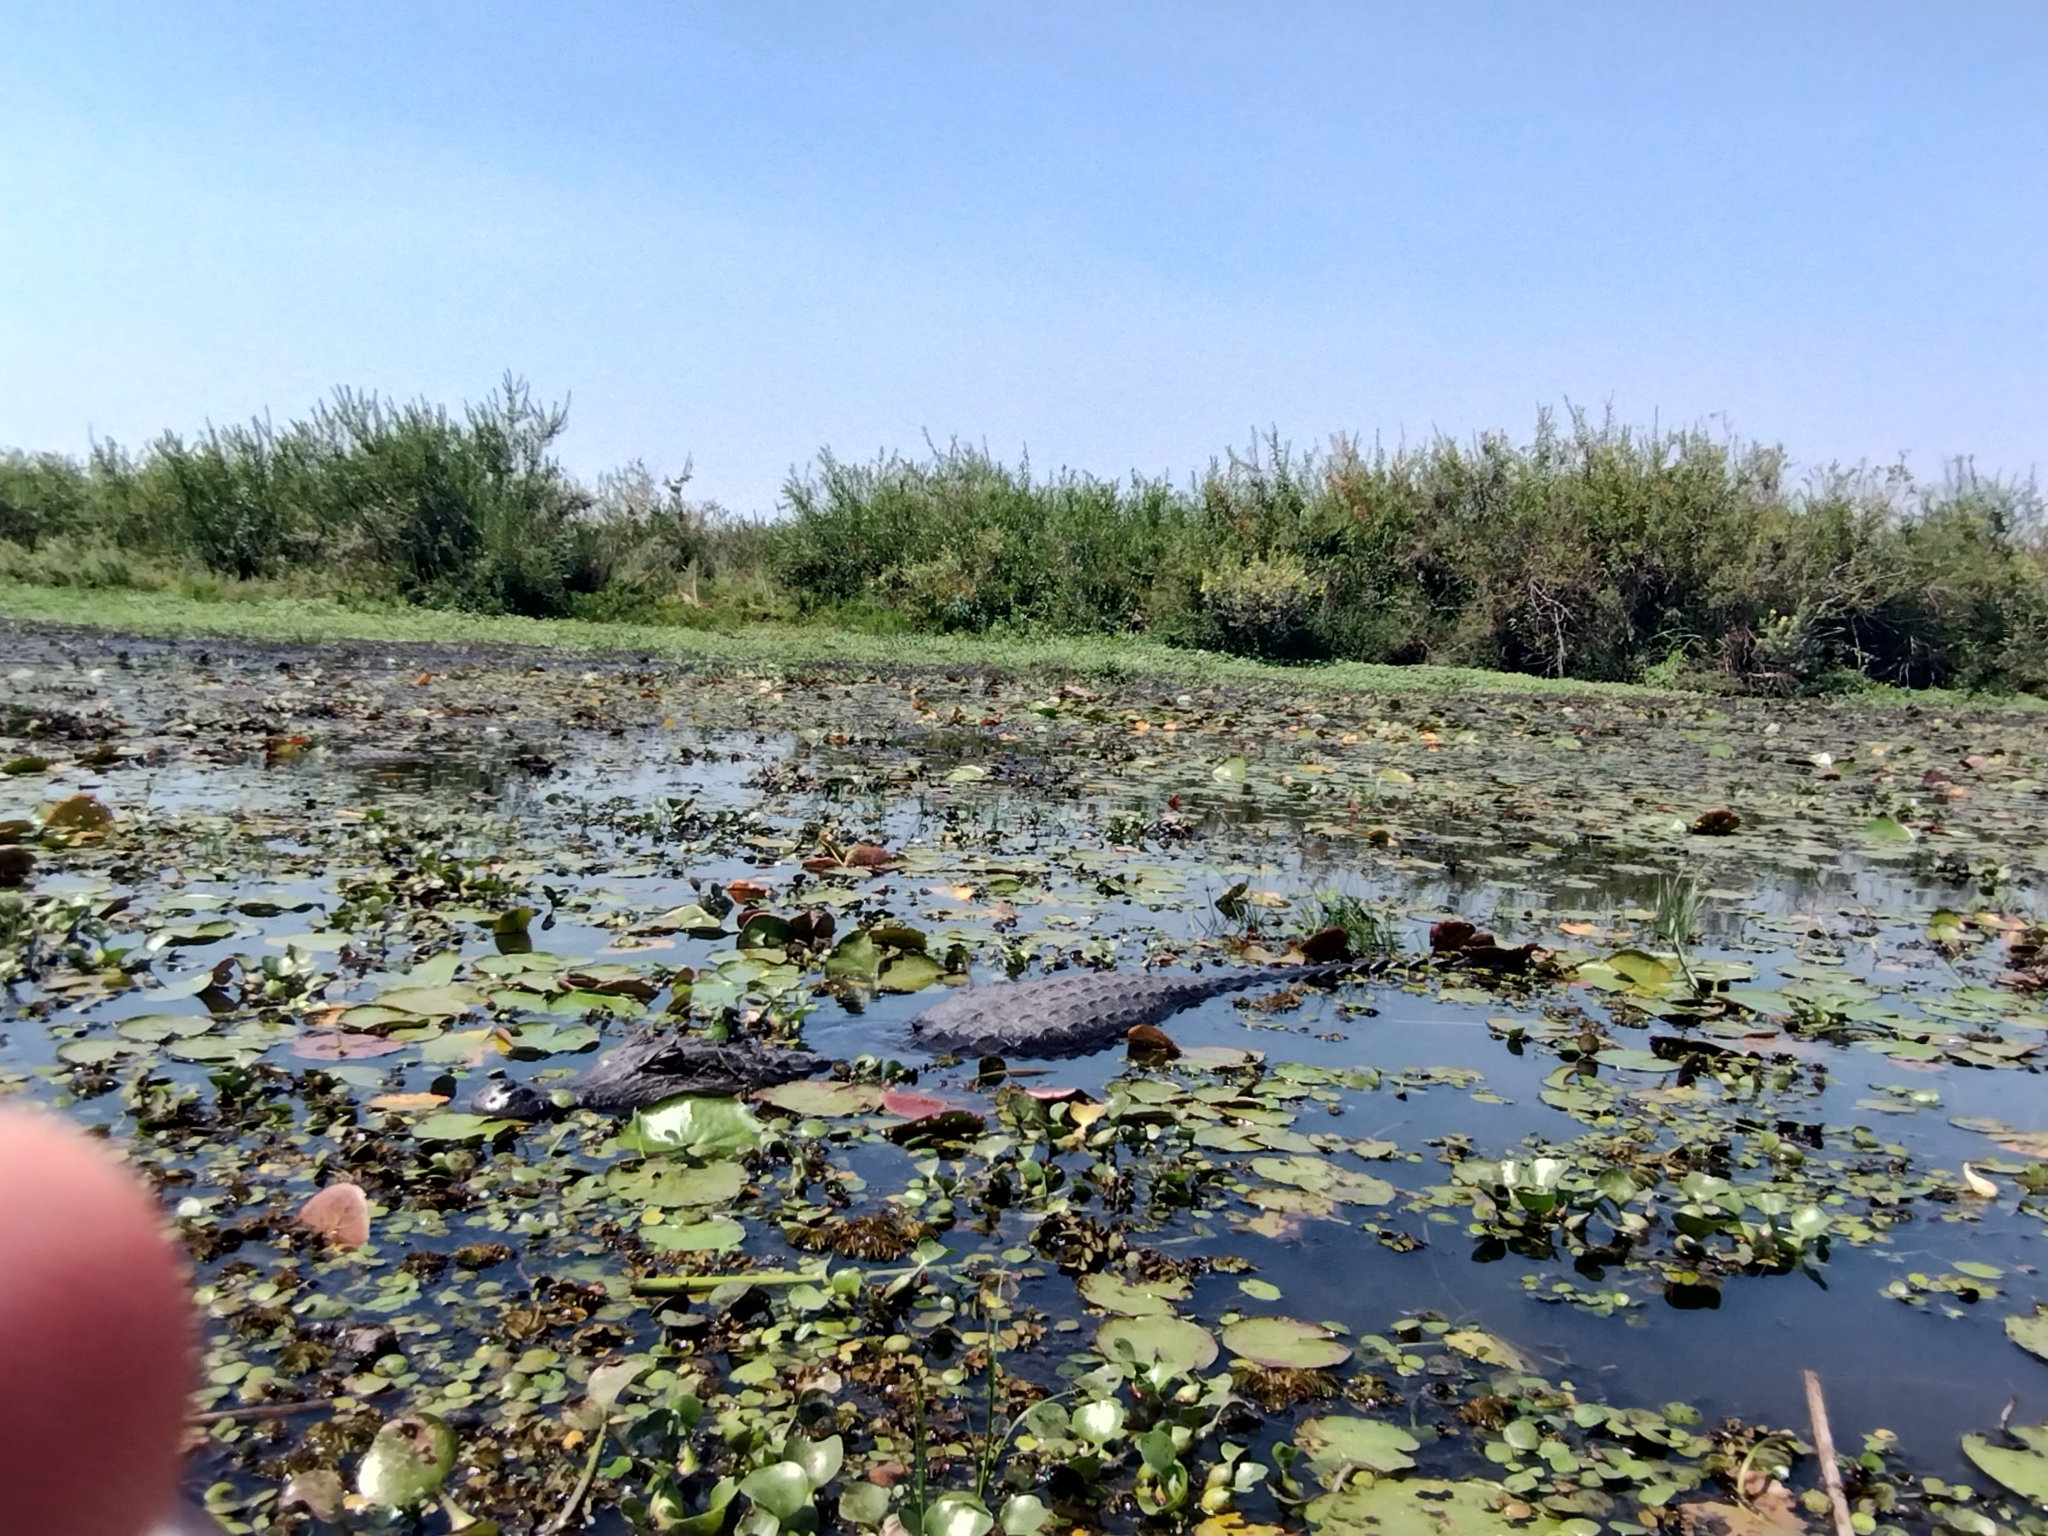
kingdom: Animalia
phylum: Chordata
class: Crocodylia
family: Alligatoridae
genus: Caiman
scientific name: Caiman yacare
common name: Yacare caiman
